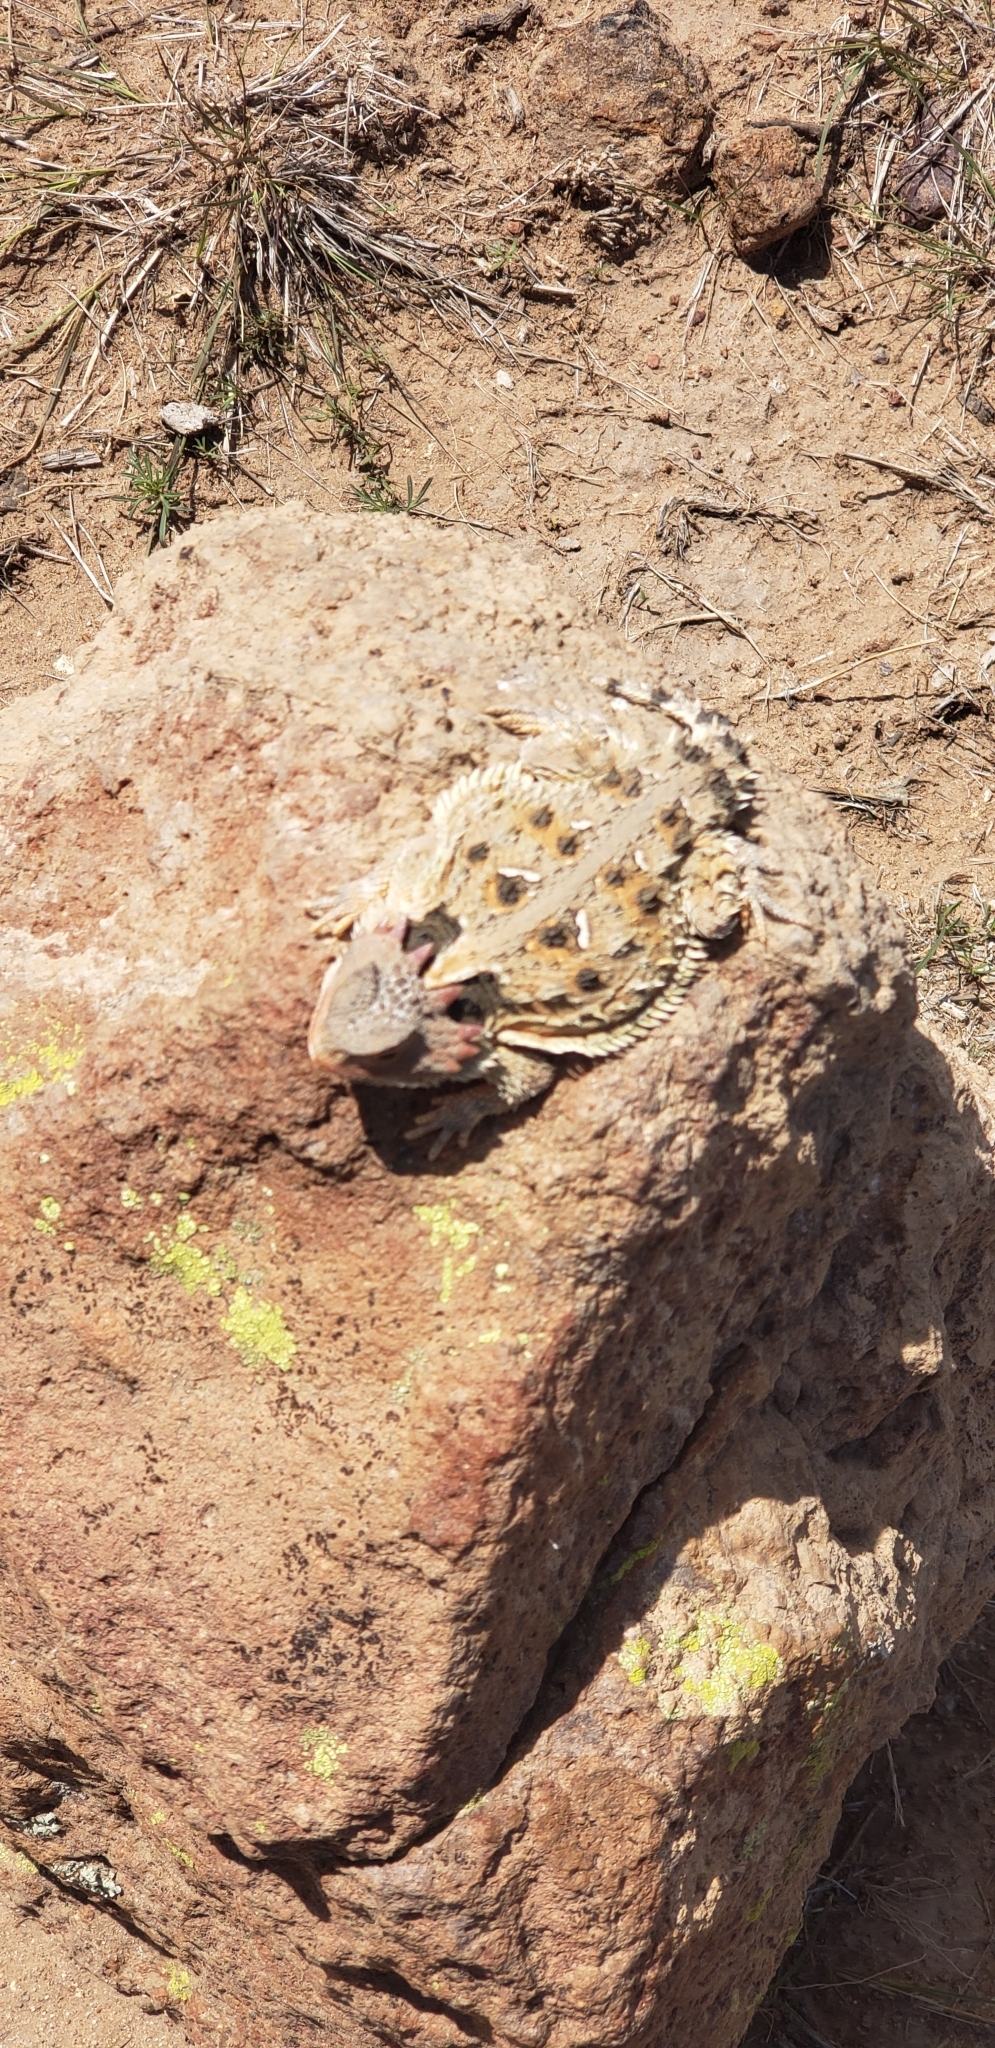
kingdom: Animalia
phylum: Chordata
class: Squamata
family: Phrynosomatidae
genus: Phrynosoma
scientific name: Phrynosoma orbiculare
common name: Mountain horned lizard
